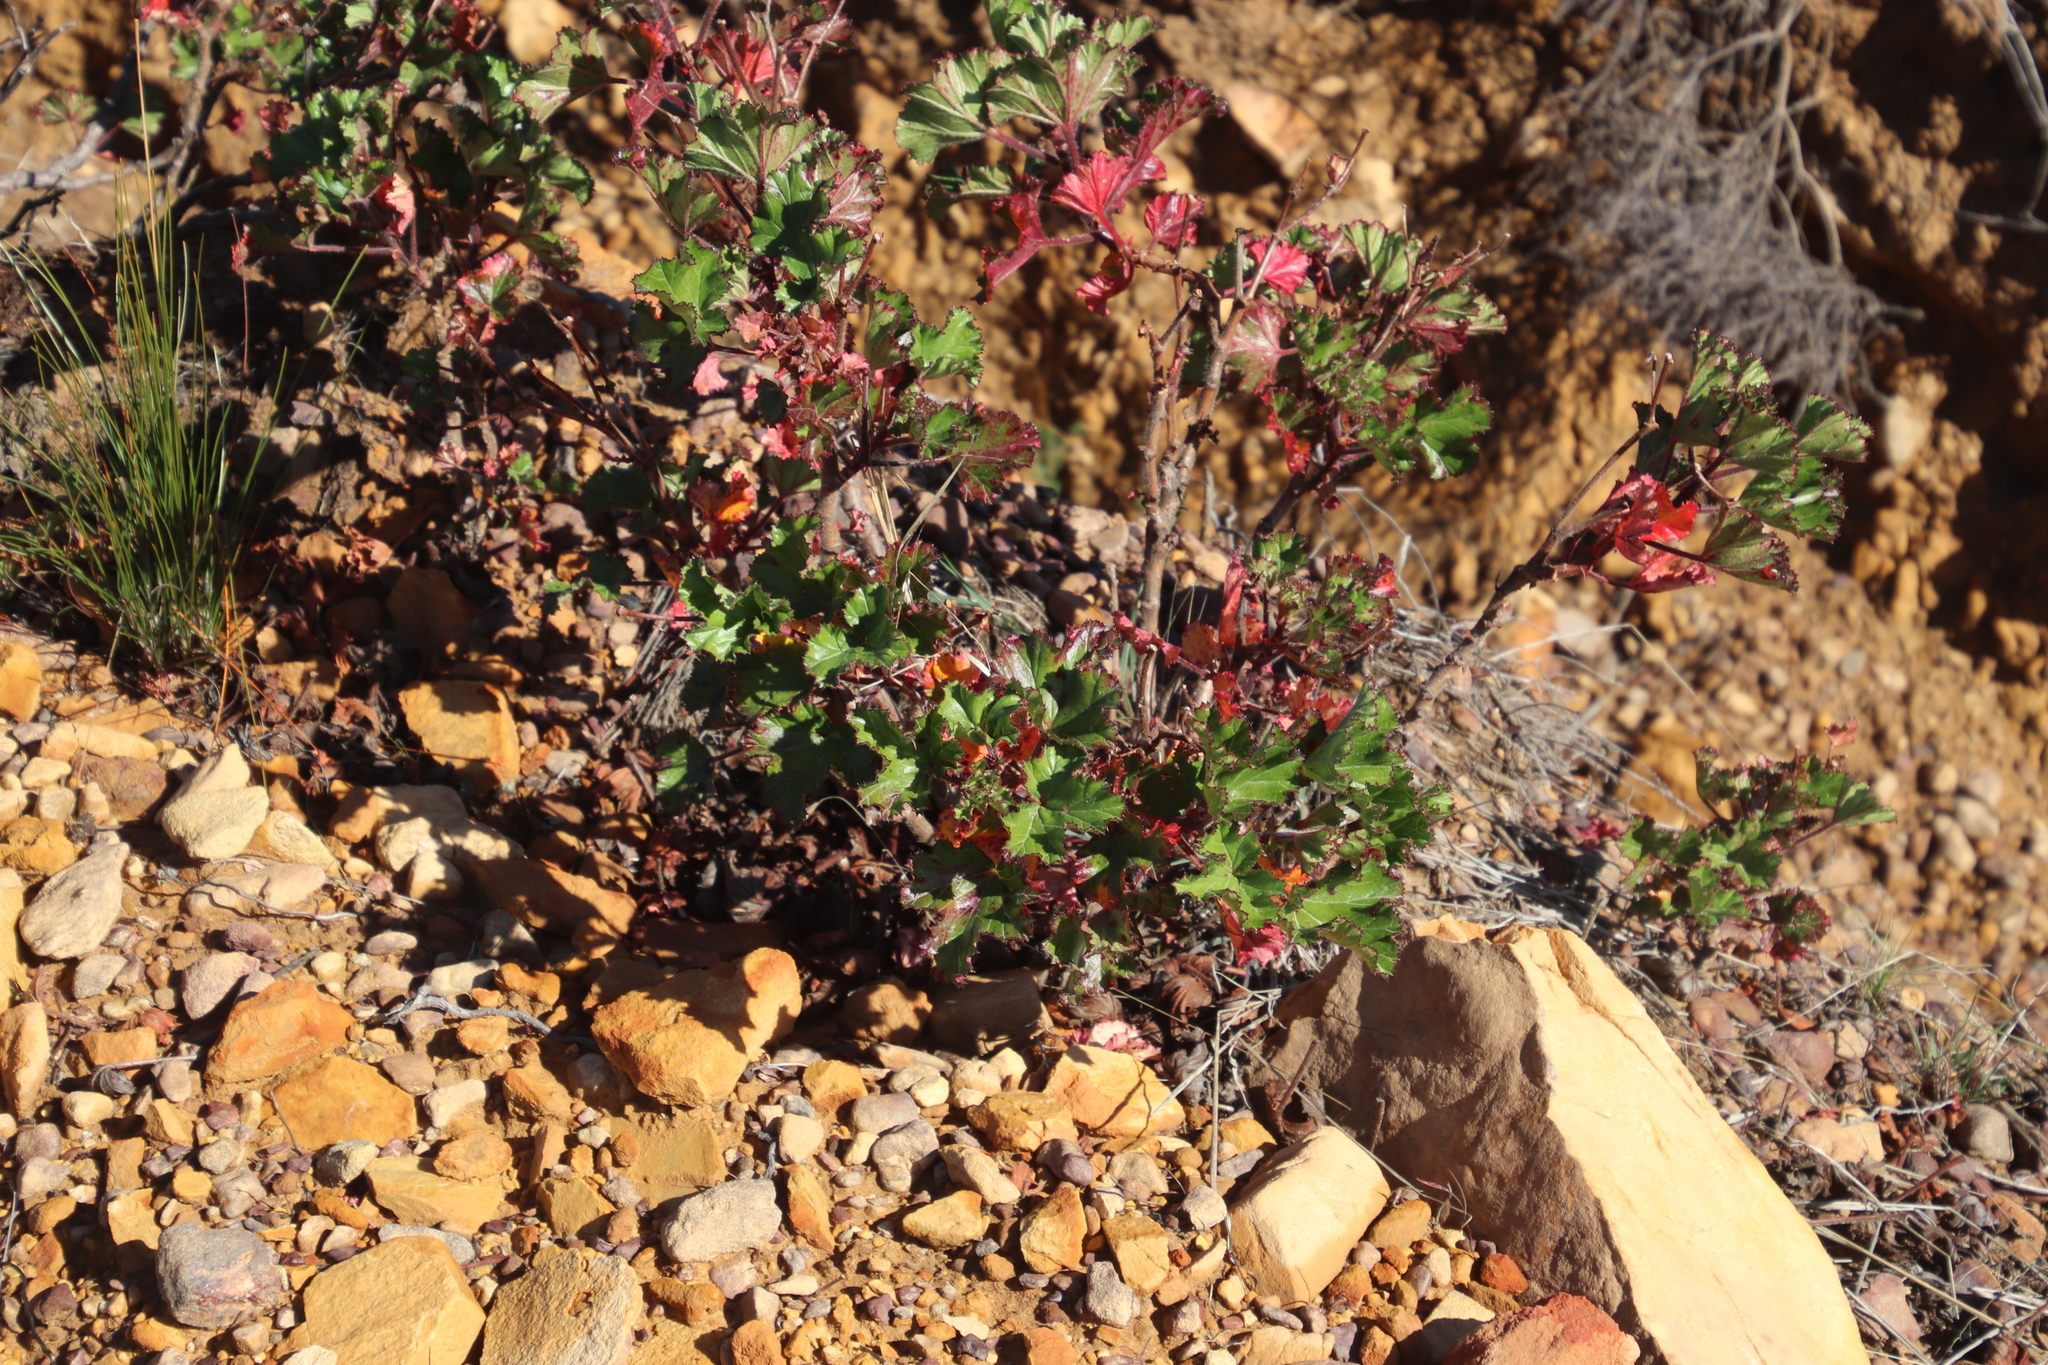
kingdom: Plantae
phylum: Tracheophyta
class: Magnoliopsida
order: Geraniales
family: Geraniaceae
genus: Pelargonium
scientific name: Pelargonium sublignosum
